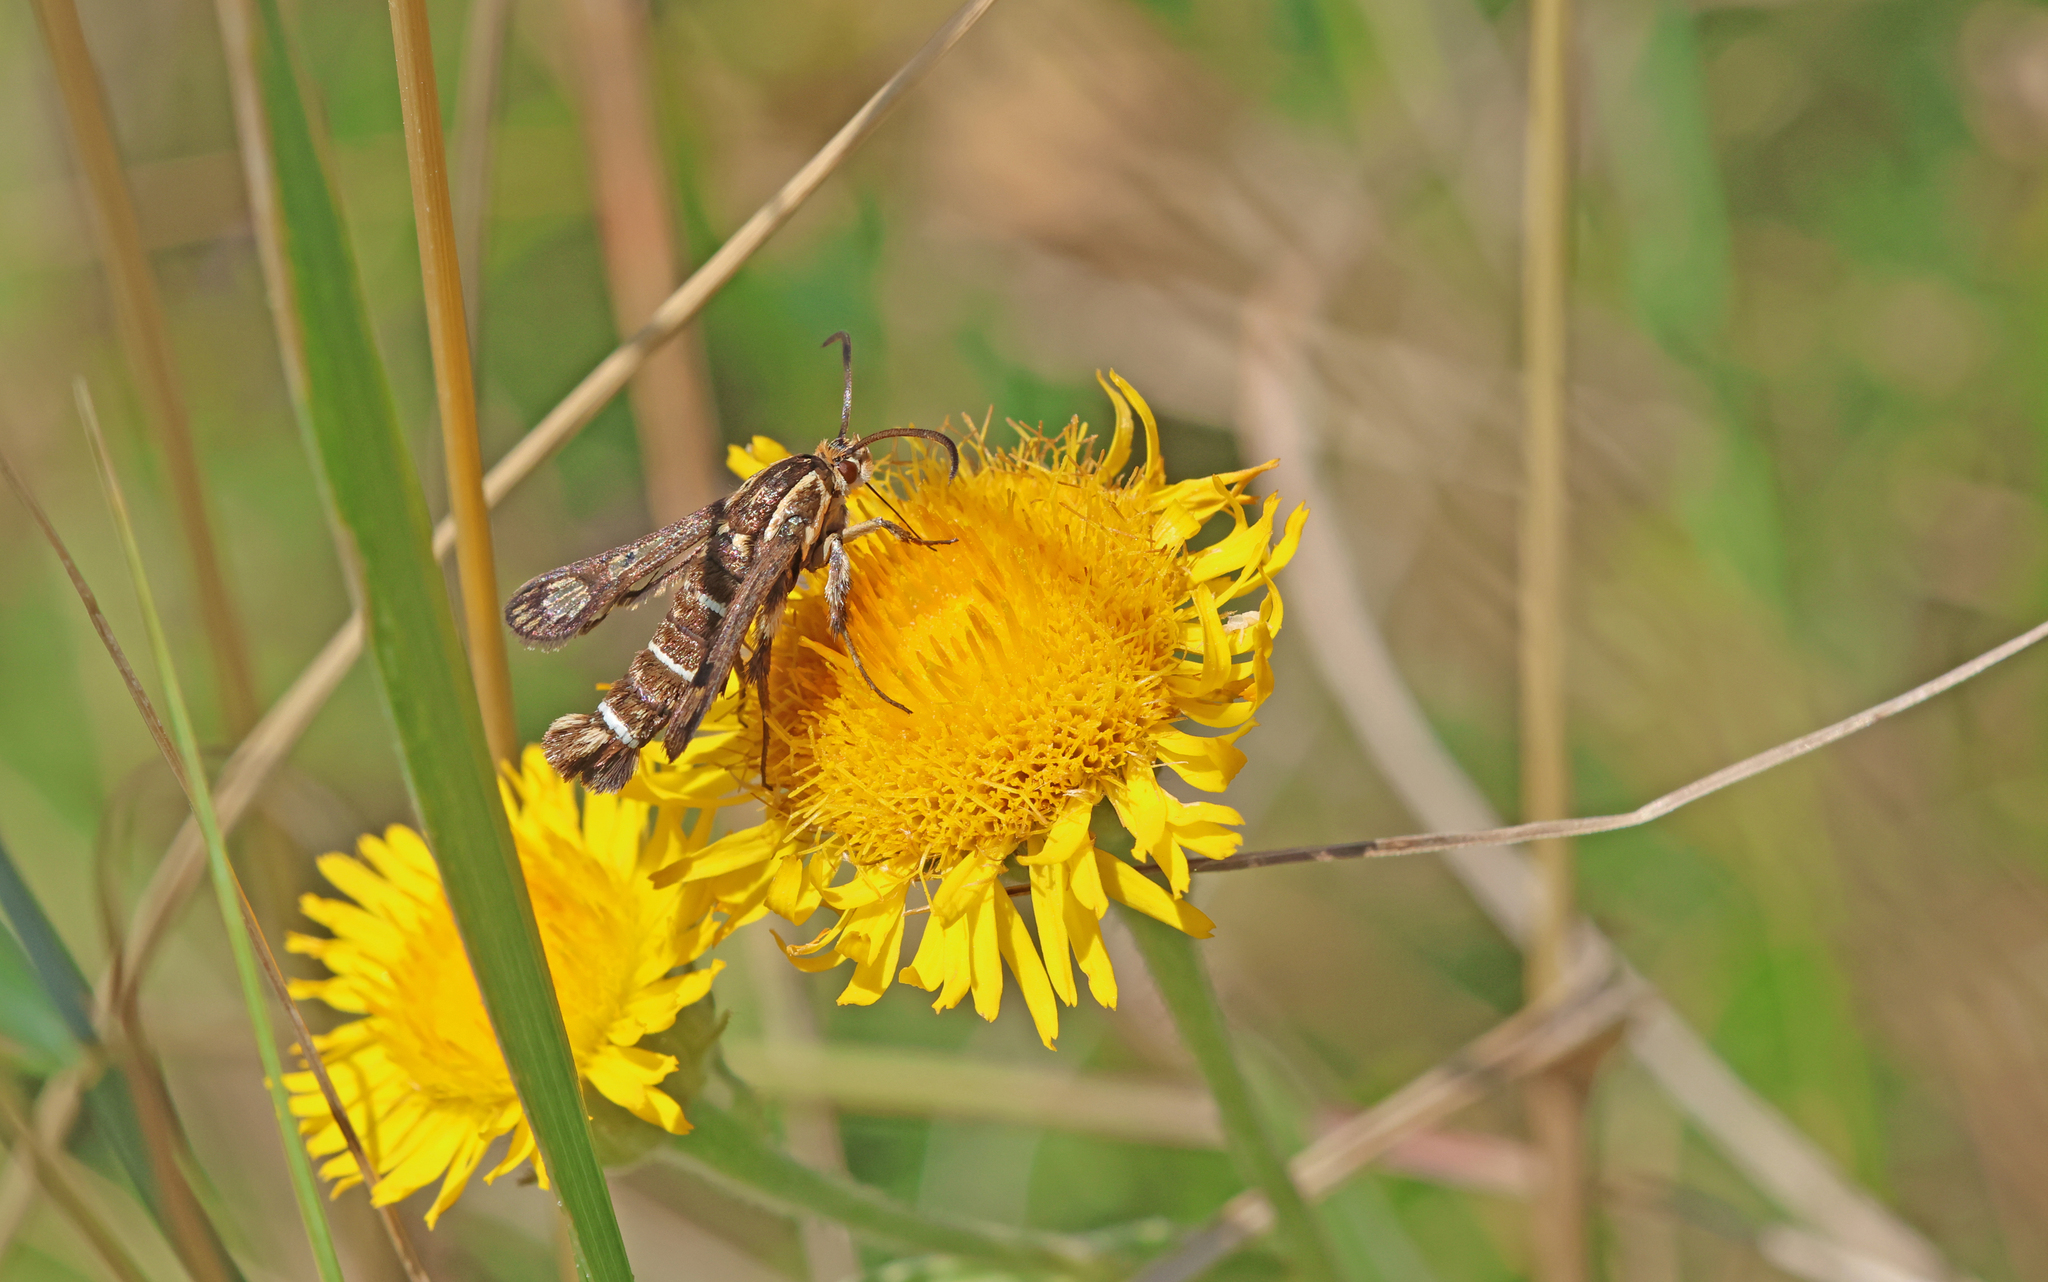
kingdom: Animalia
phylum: Arthropoda
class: Insecta
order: Lepidoptera
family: Sesiidae
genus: Chamaesphecia
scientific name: Chamaesphecia doleriformis
